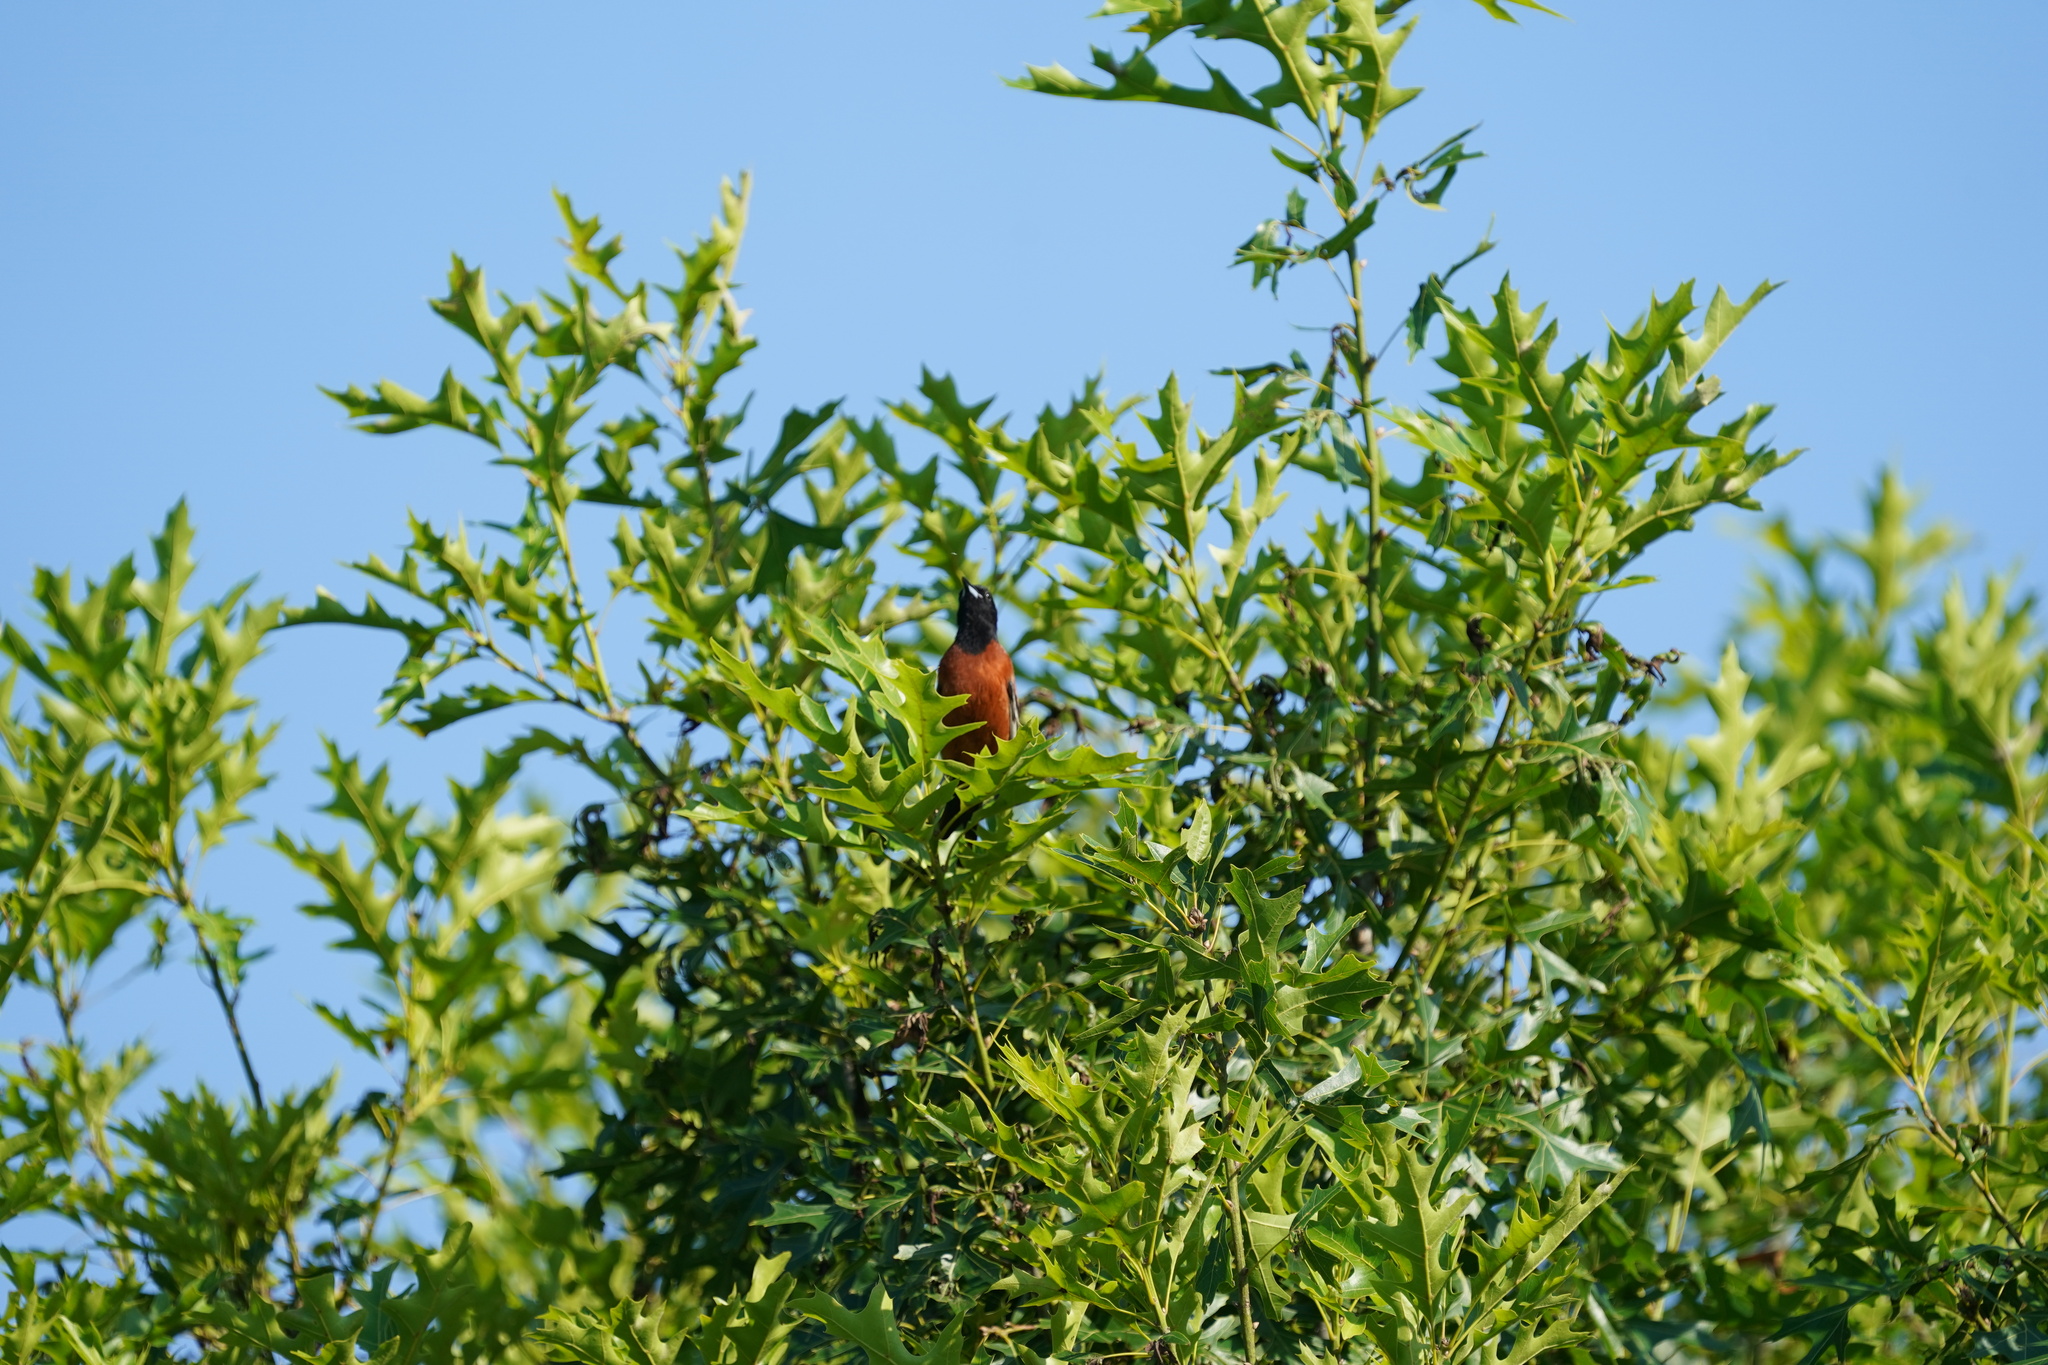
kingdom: Animalia
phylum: Chordata
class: Aves
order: Passeriformes
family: Icteridae
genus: Icterus
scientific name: Icterus spurius
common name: Orchard oriole
